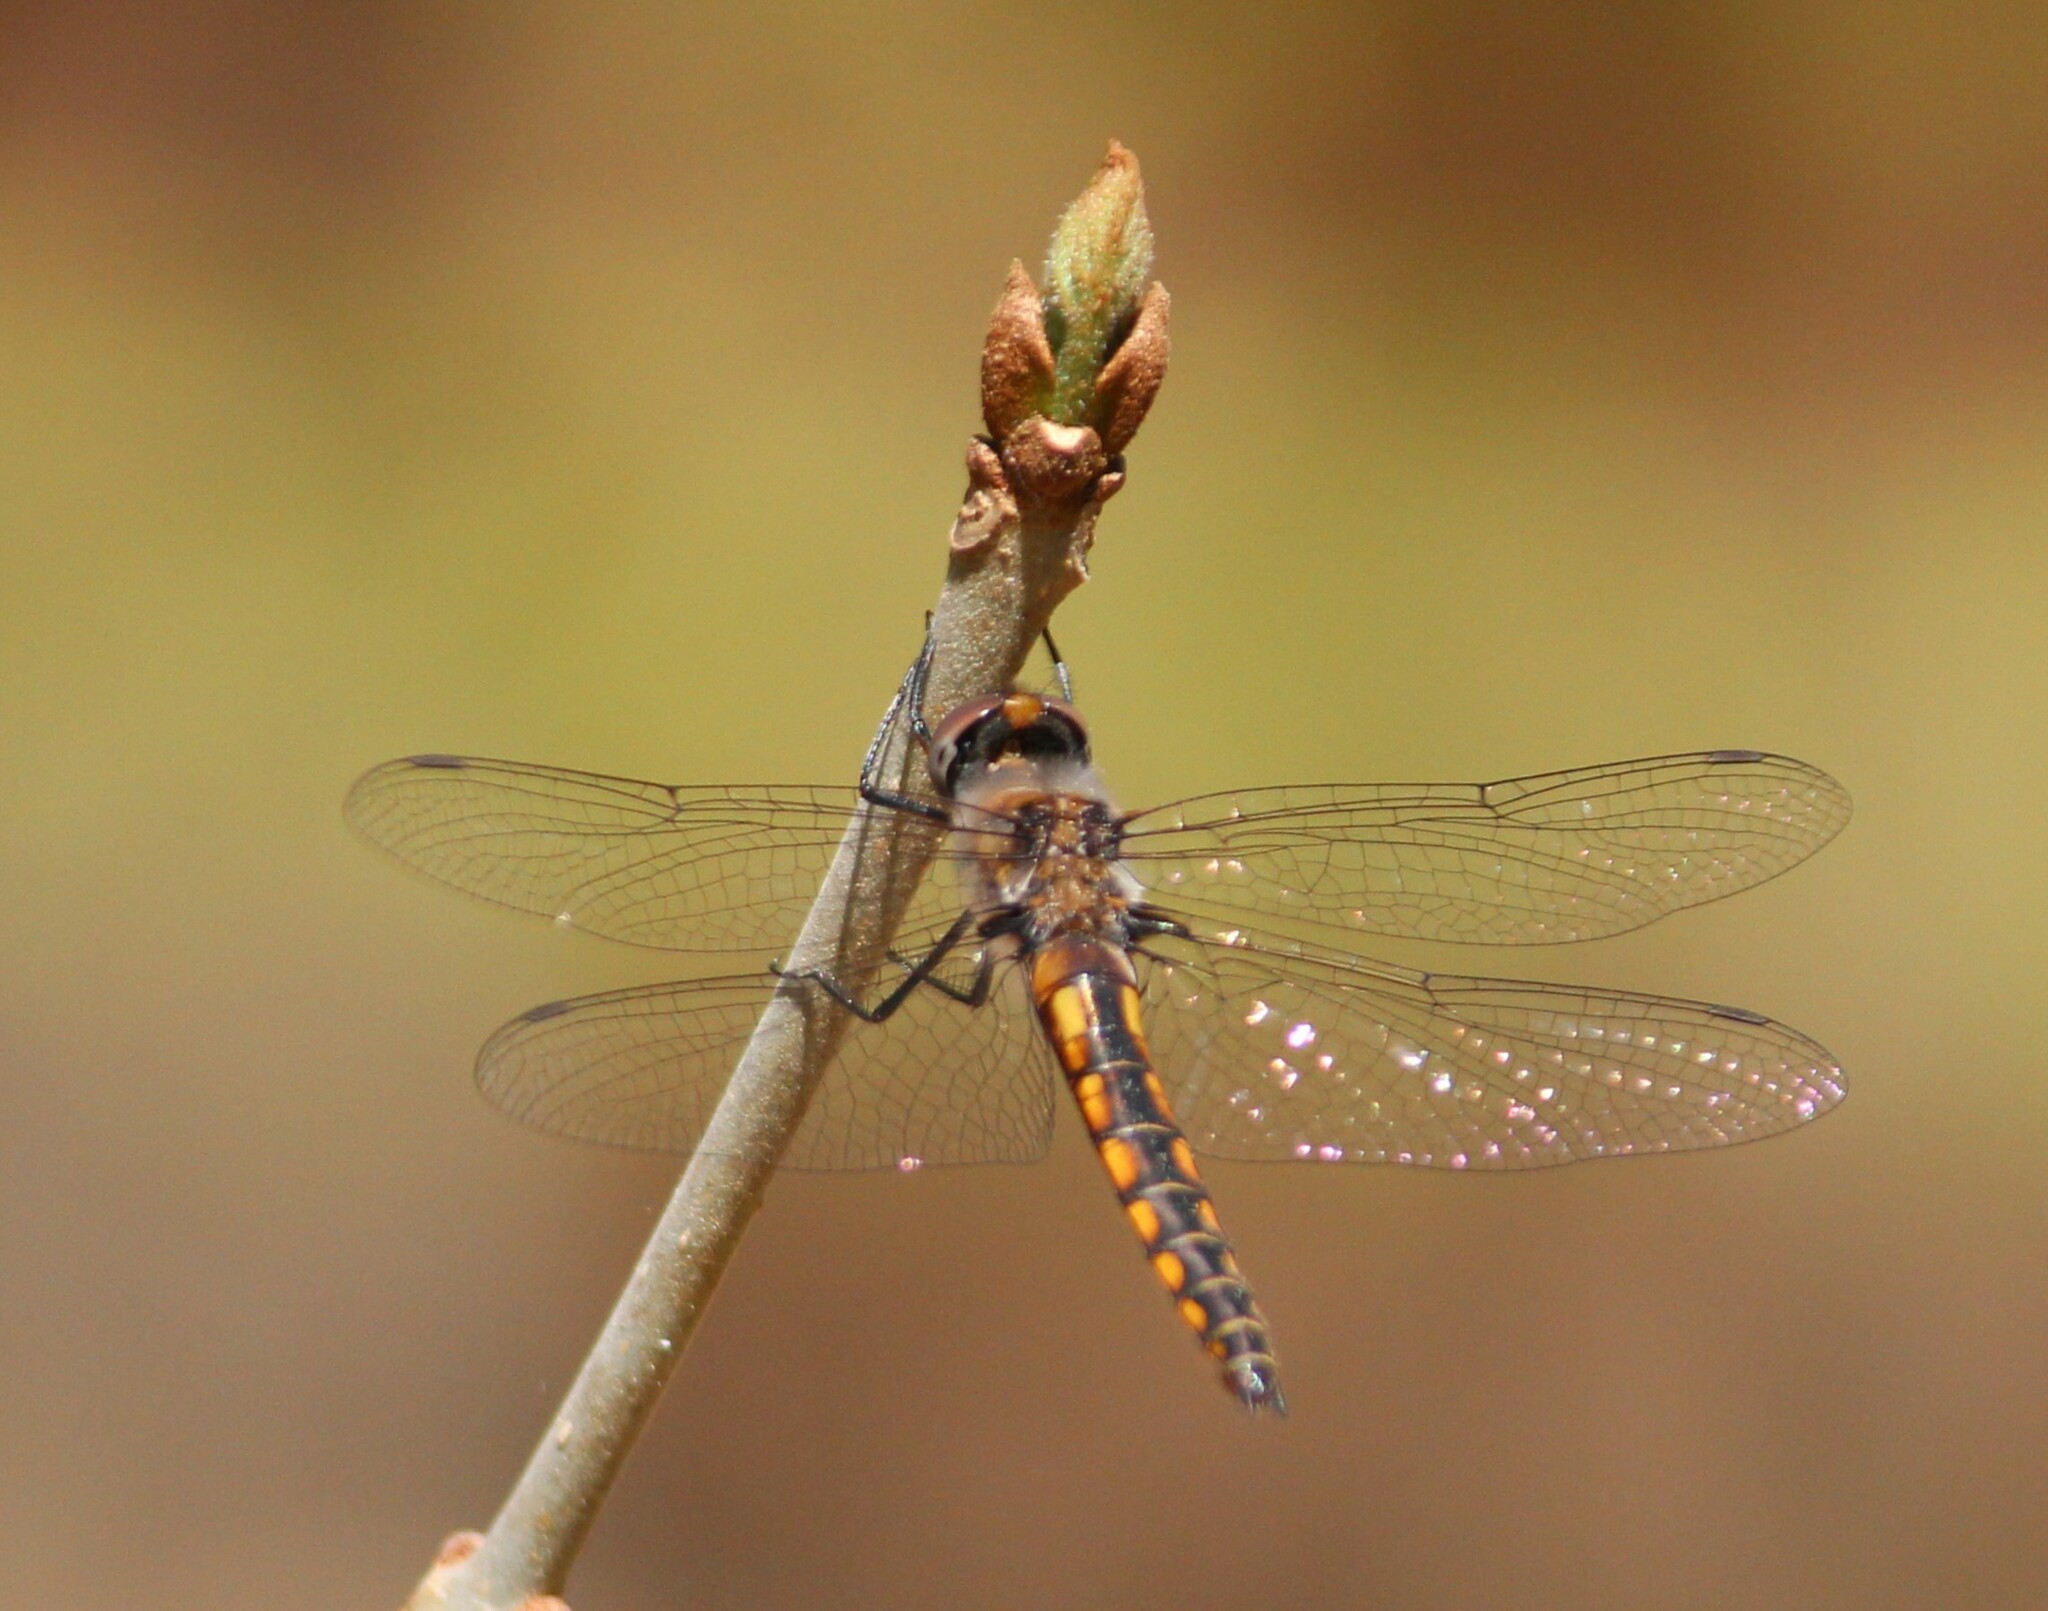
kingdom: Animalia
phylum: Arthropoda
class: Insecta
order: Odonata
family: Corduliidae
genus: Epitheca
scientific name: Epitheca cynosura
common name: Common baskettail
